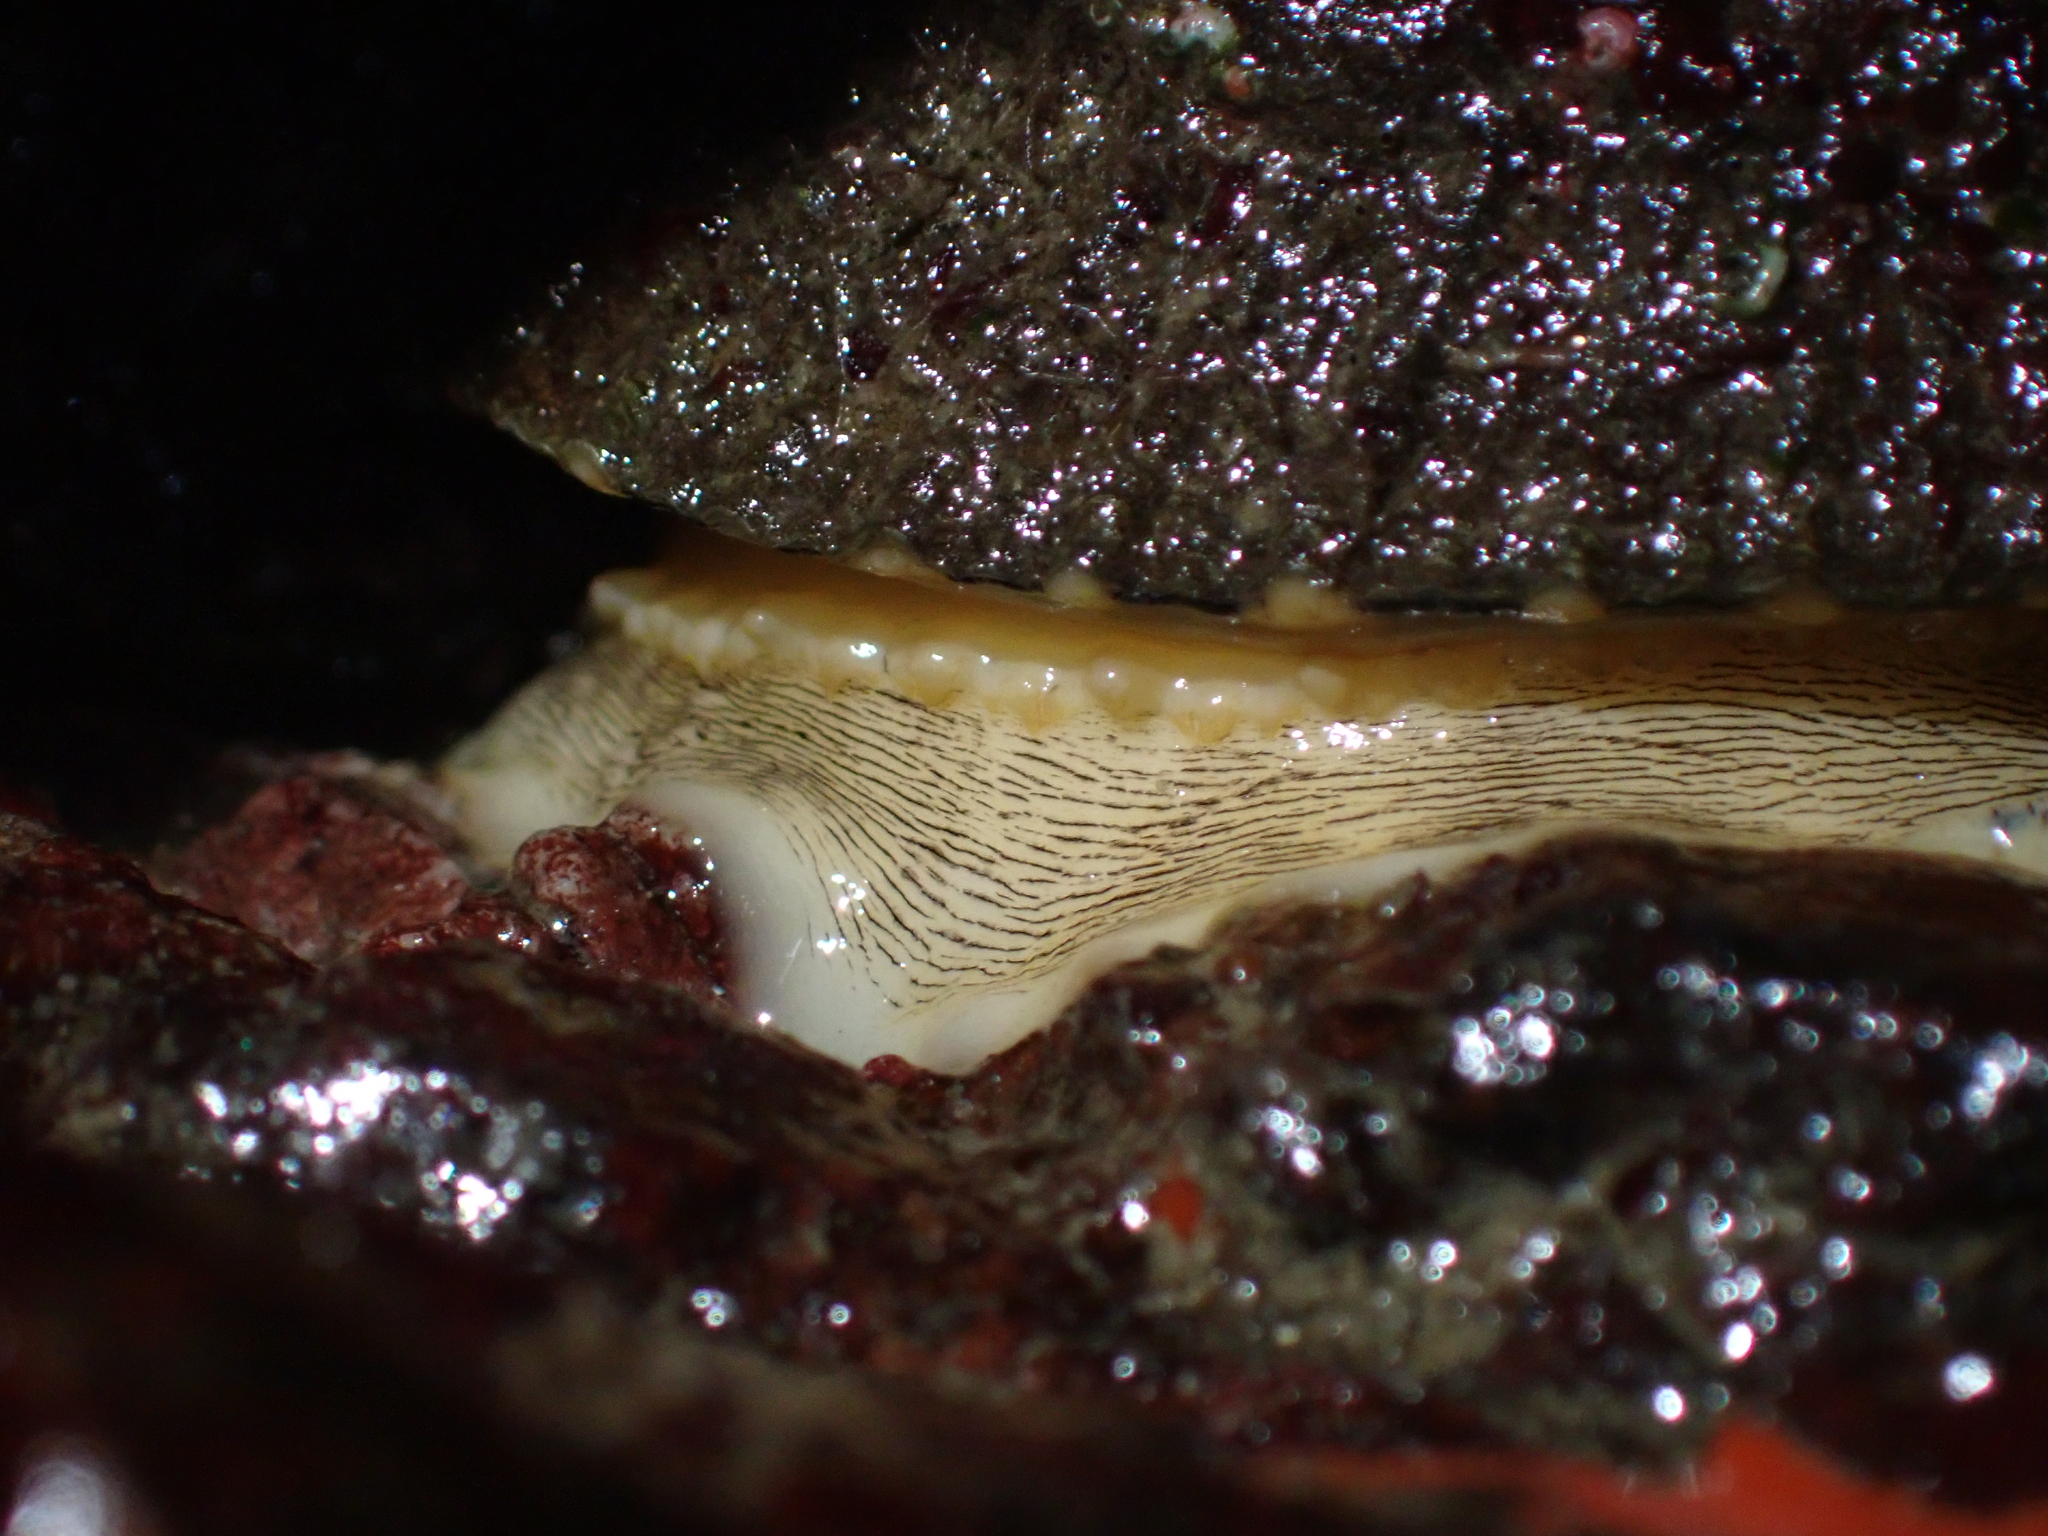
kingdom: Animalia
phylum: Mollusca
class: Gastropoda
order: Lepetellida
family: Fissurellidae
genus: Diodora
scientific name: Diodora aspera
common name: Rough keyhole limpet
